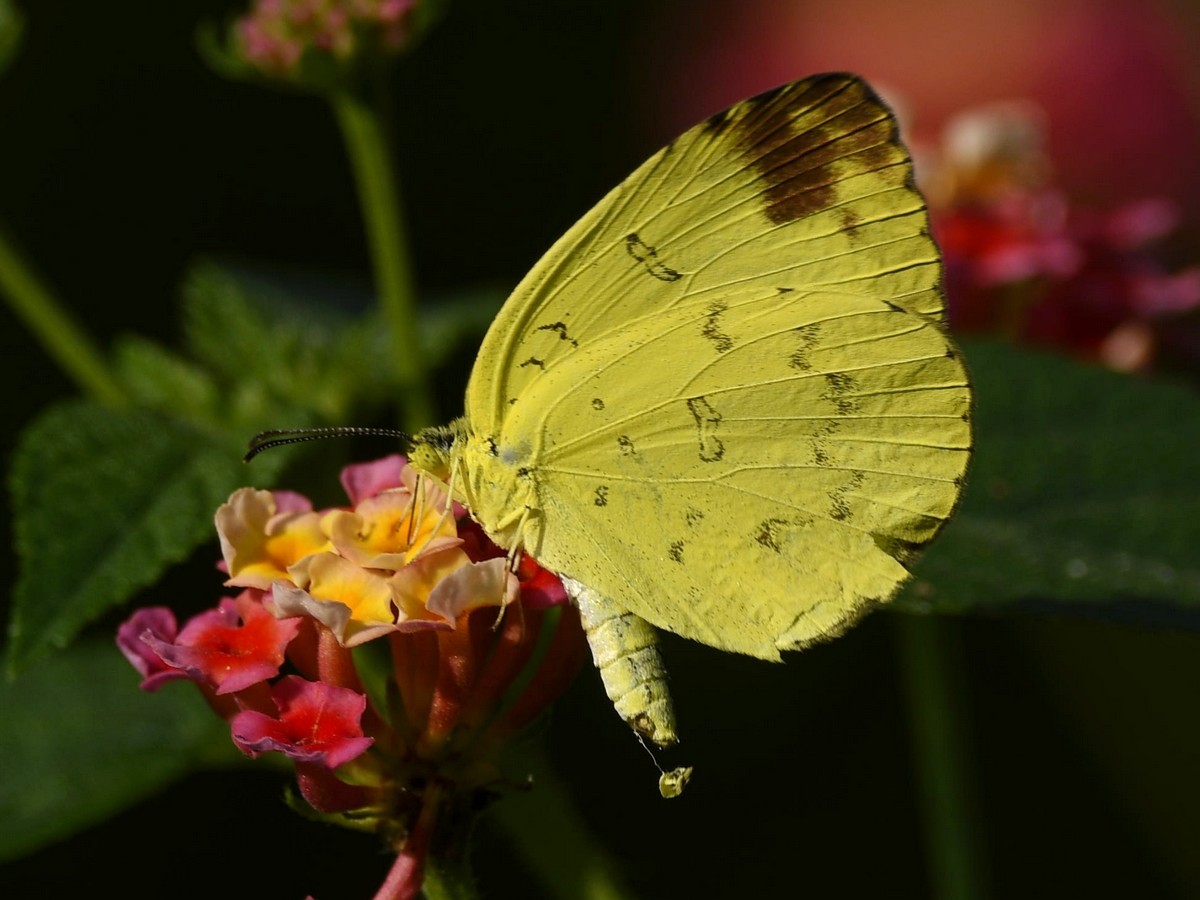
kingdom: Animalia
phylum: Arthropoda
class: Insecta
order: Lepidoptera
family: Pieridae
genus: Eurema
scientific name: Eurema blanda
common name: Three-spot grass yellow
